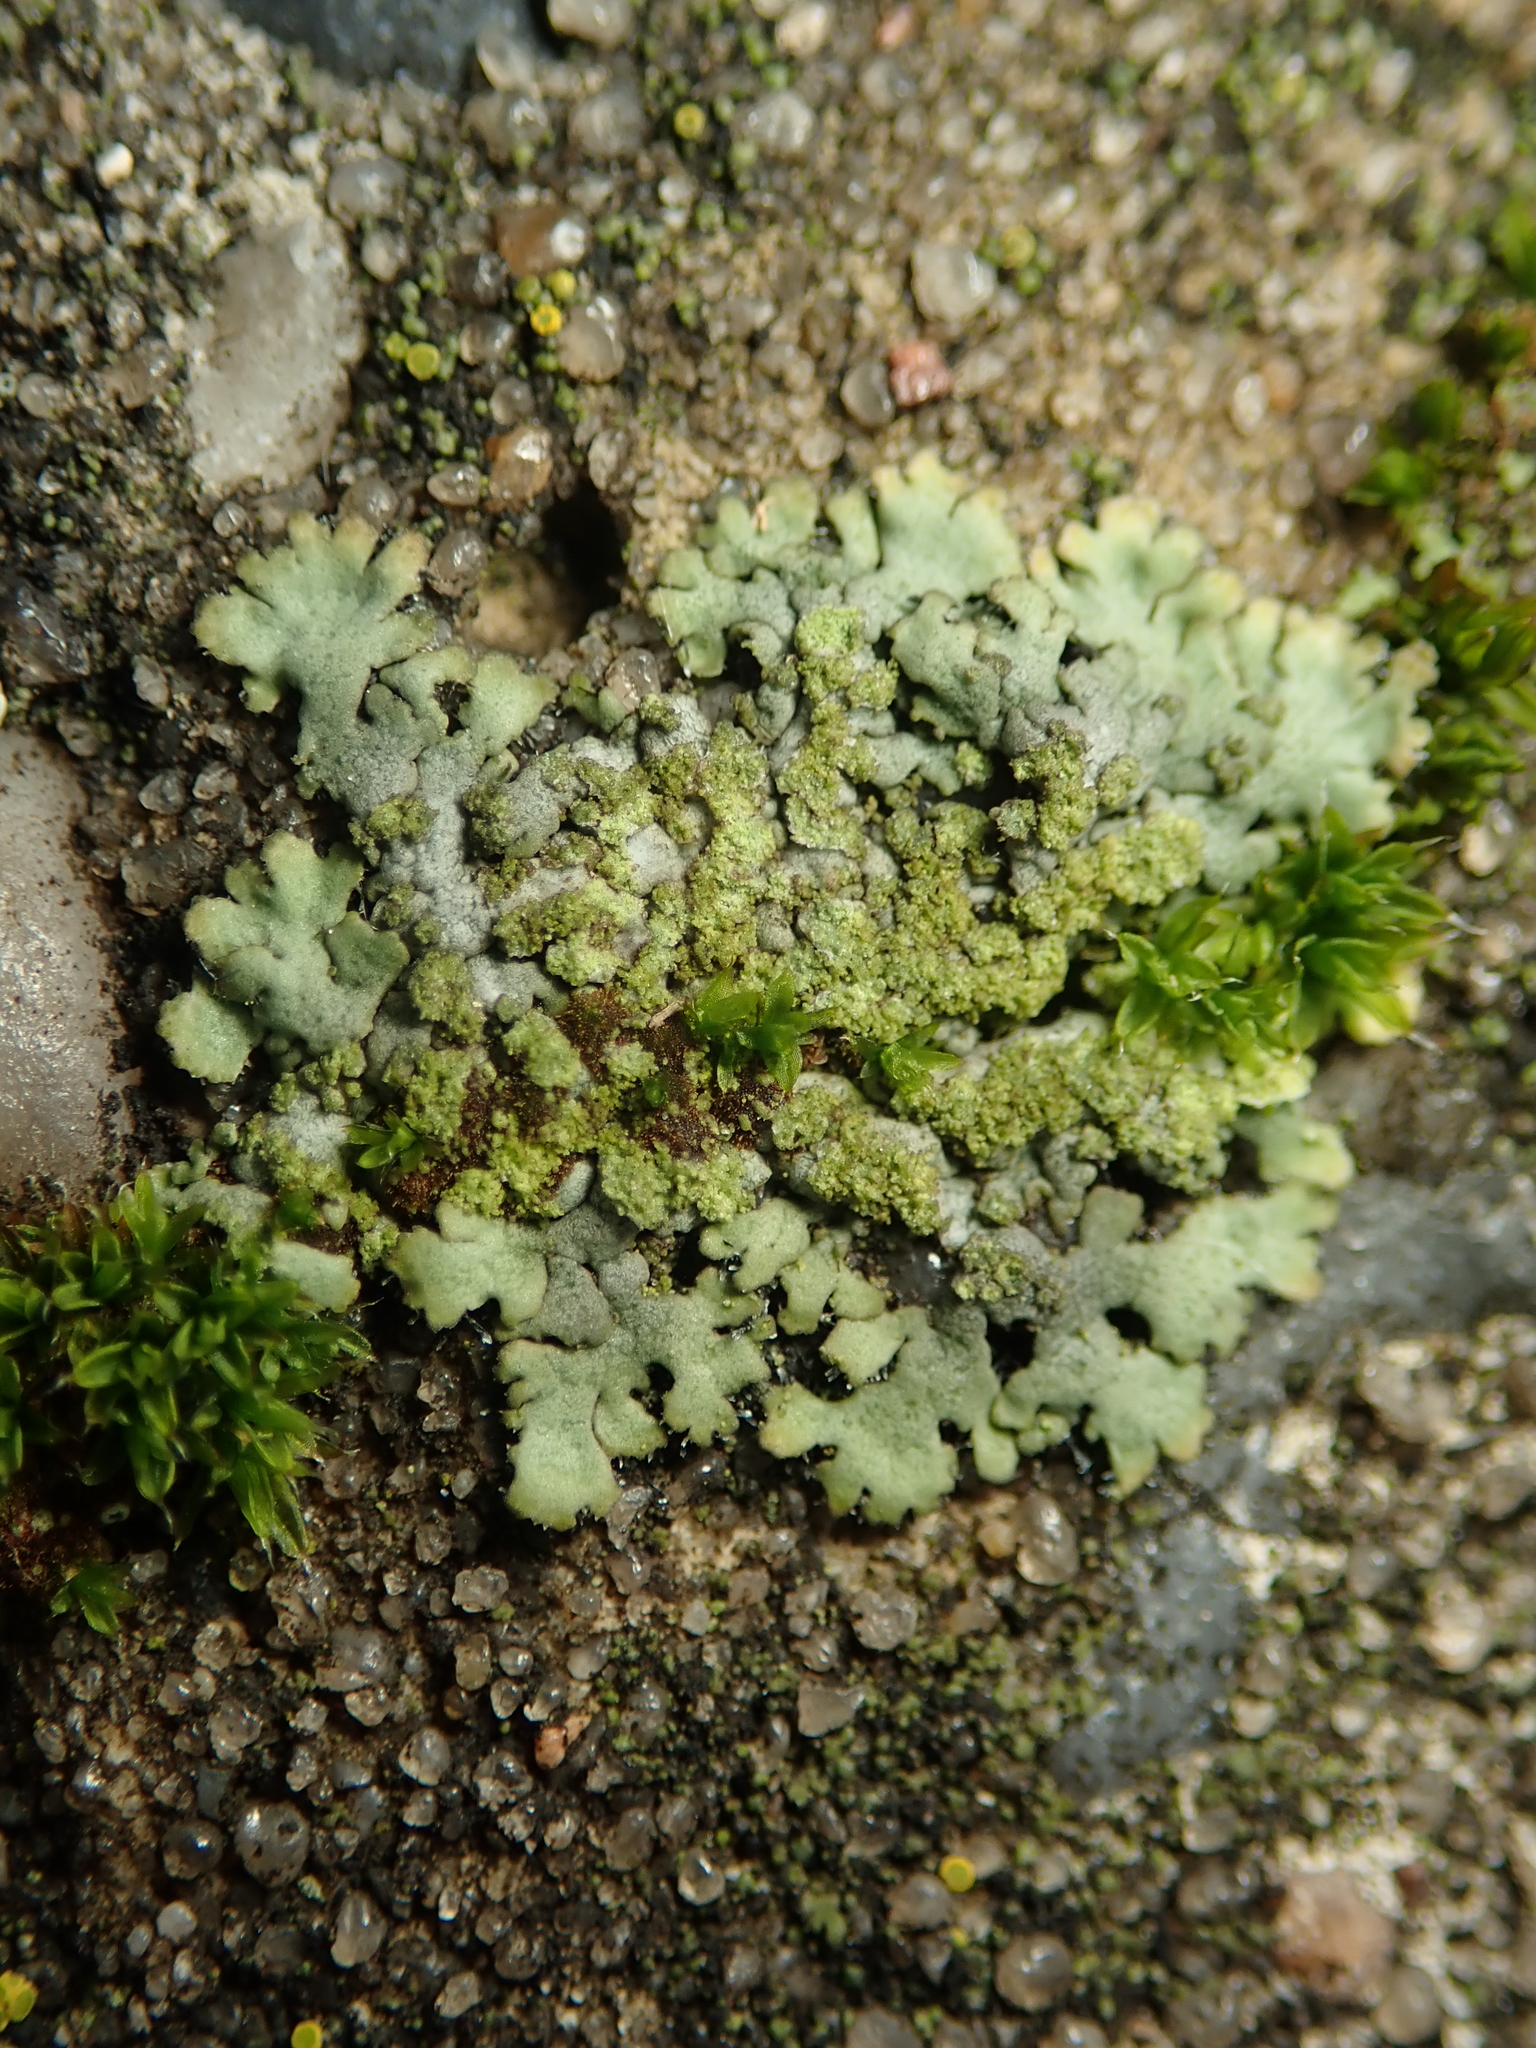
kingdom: Fungi
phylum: Ascomycota
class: Lecanoromycetes
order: Caliciales
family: Physciaceae
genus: Phaeophyscia
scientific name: Phaeophyscia orbicularis
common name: Mealy shadow lichen
